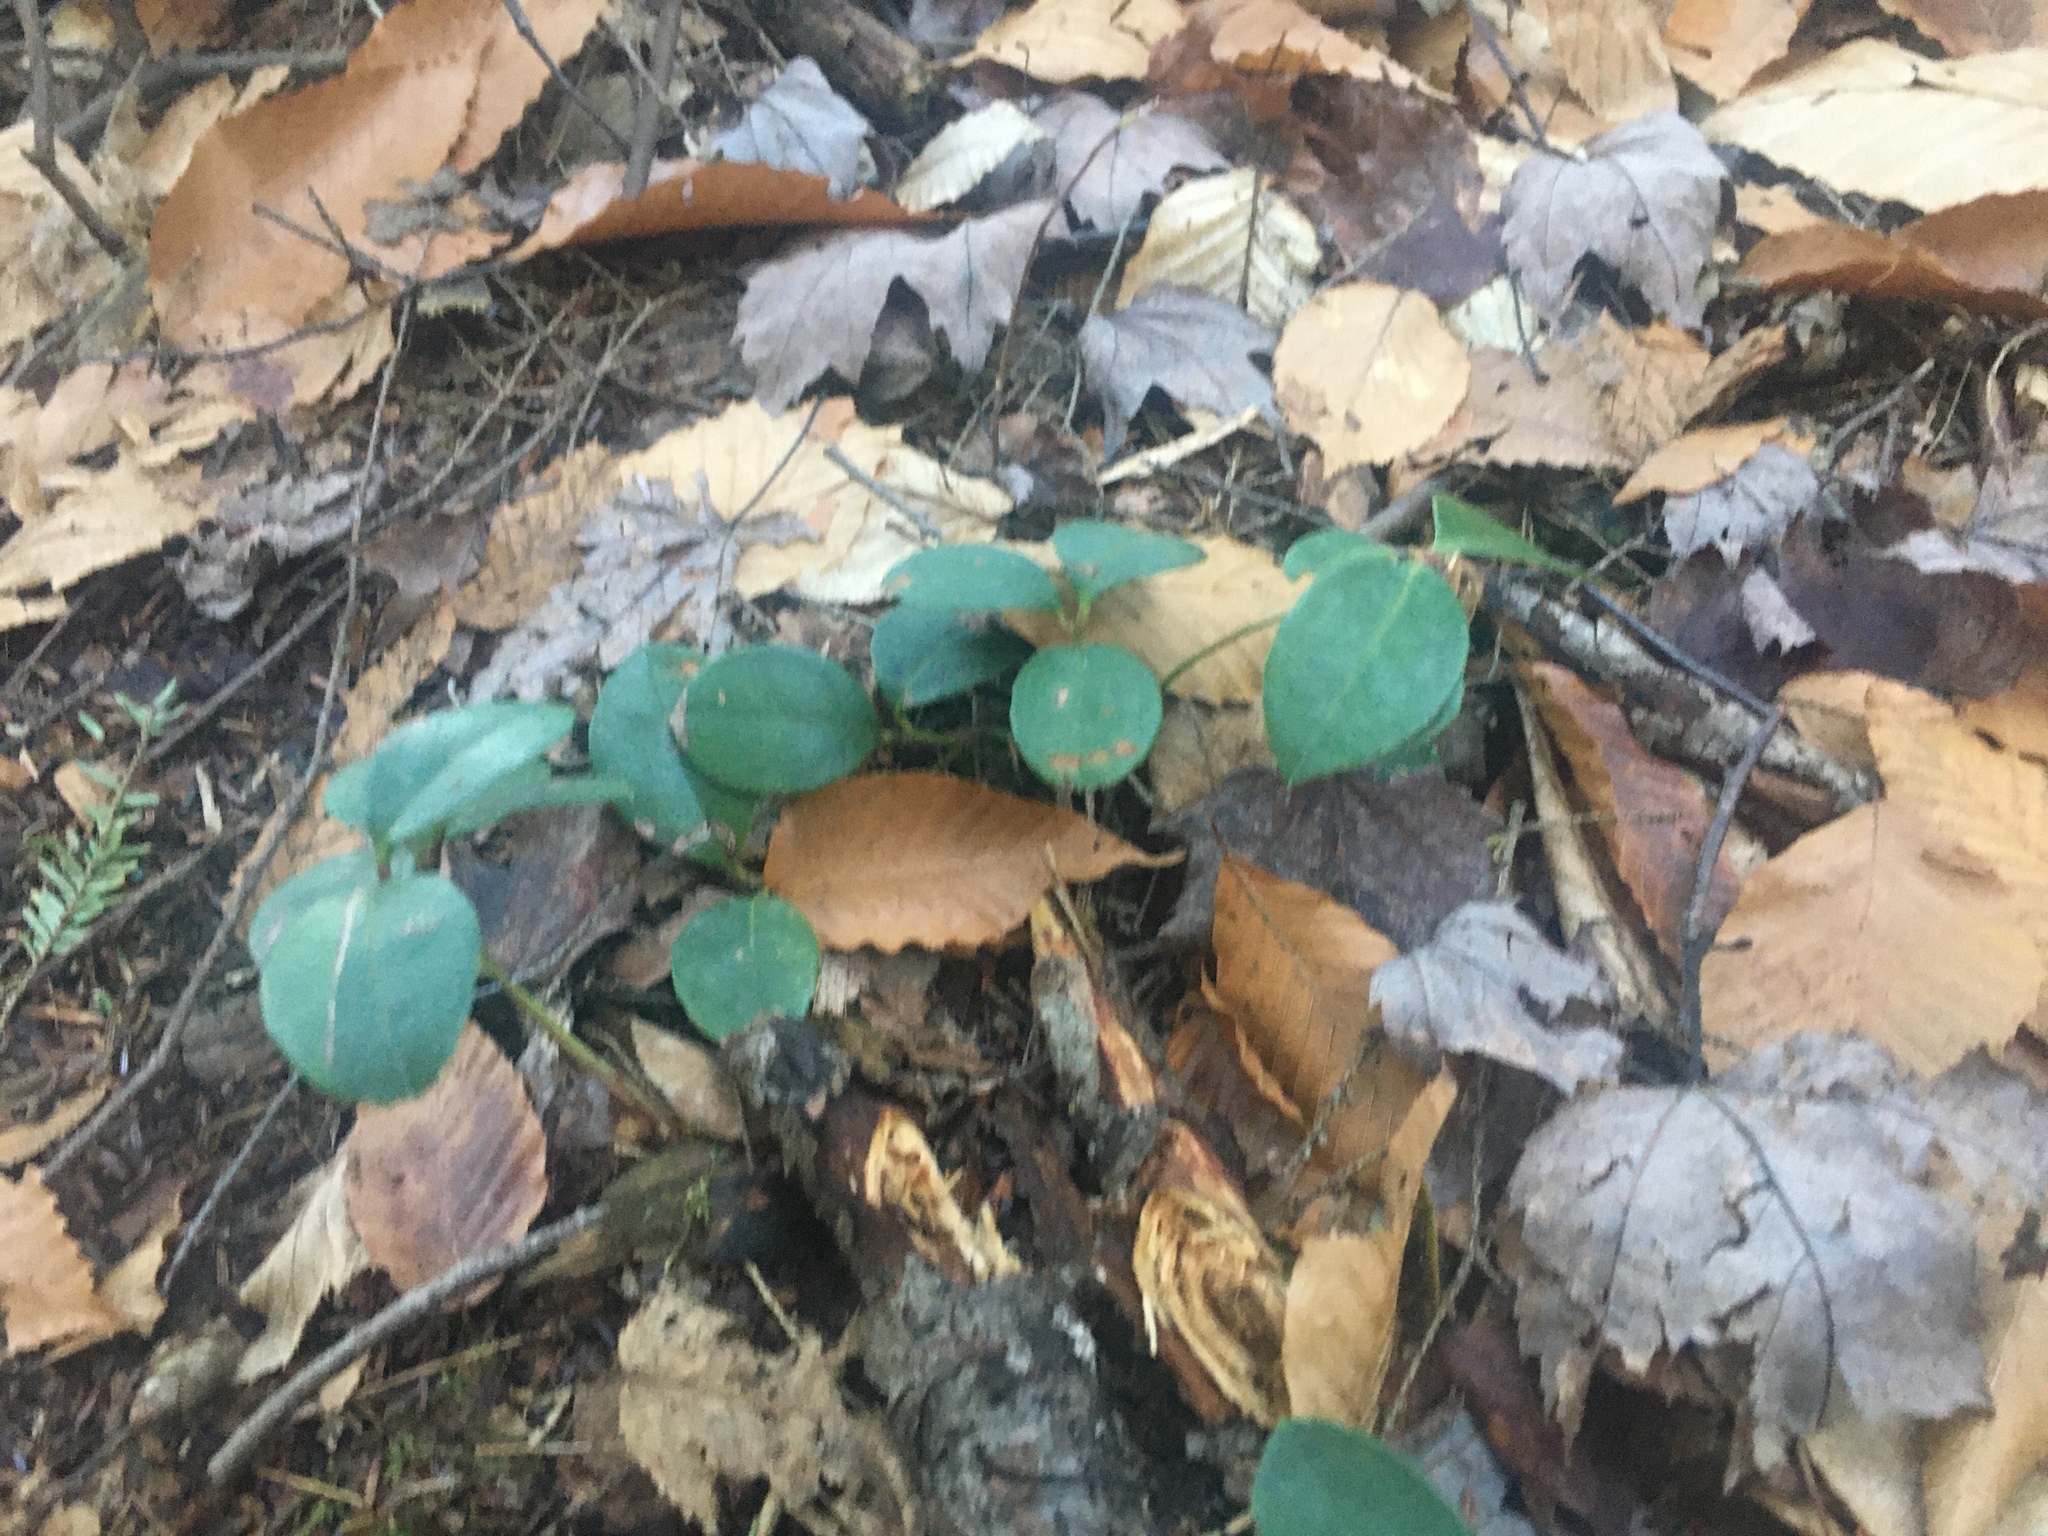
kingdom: Plantae
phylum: Tracheophyta
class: Magnoliopsida
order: Ericales
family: Ericaceae
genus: Gaultheria
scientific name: Gaultheria procumbens
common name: Checkerberry
